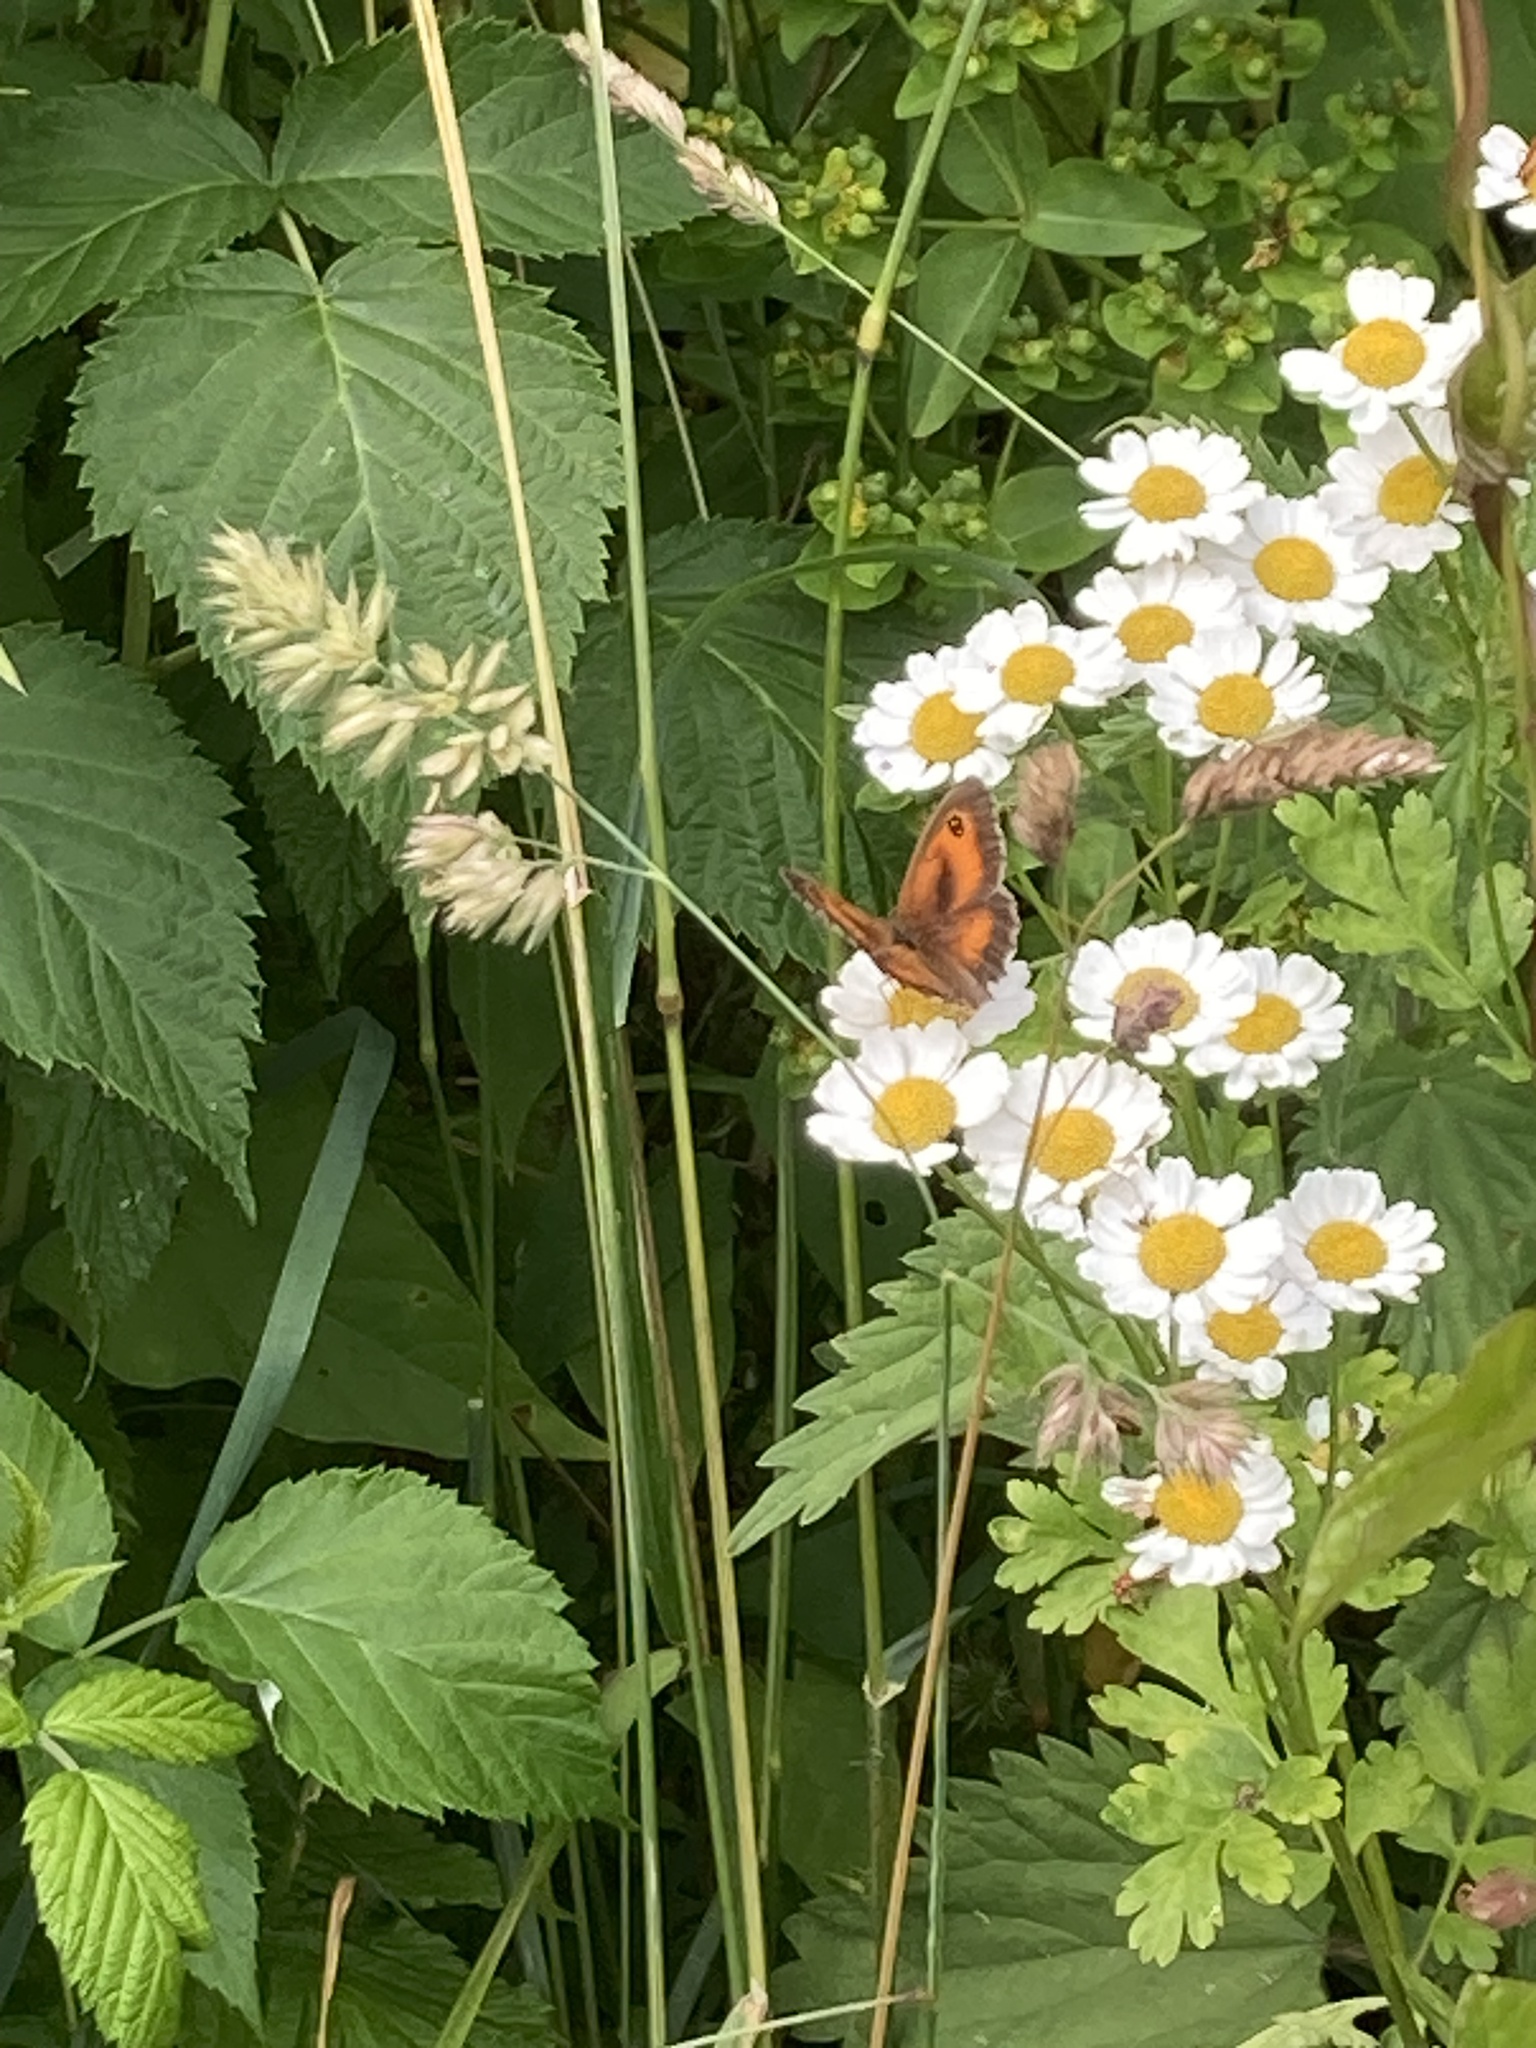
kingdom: Animalia
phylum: Arthropoda
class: Insecta
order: Lepidoptera
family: Nymphalidae
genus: Pyronia
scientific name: Pyronia tithonus
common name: Gatekeeper
